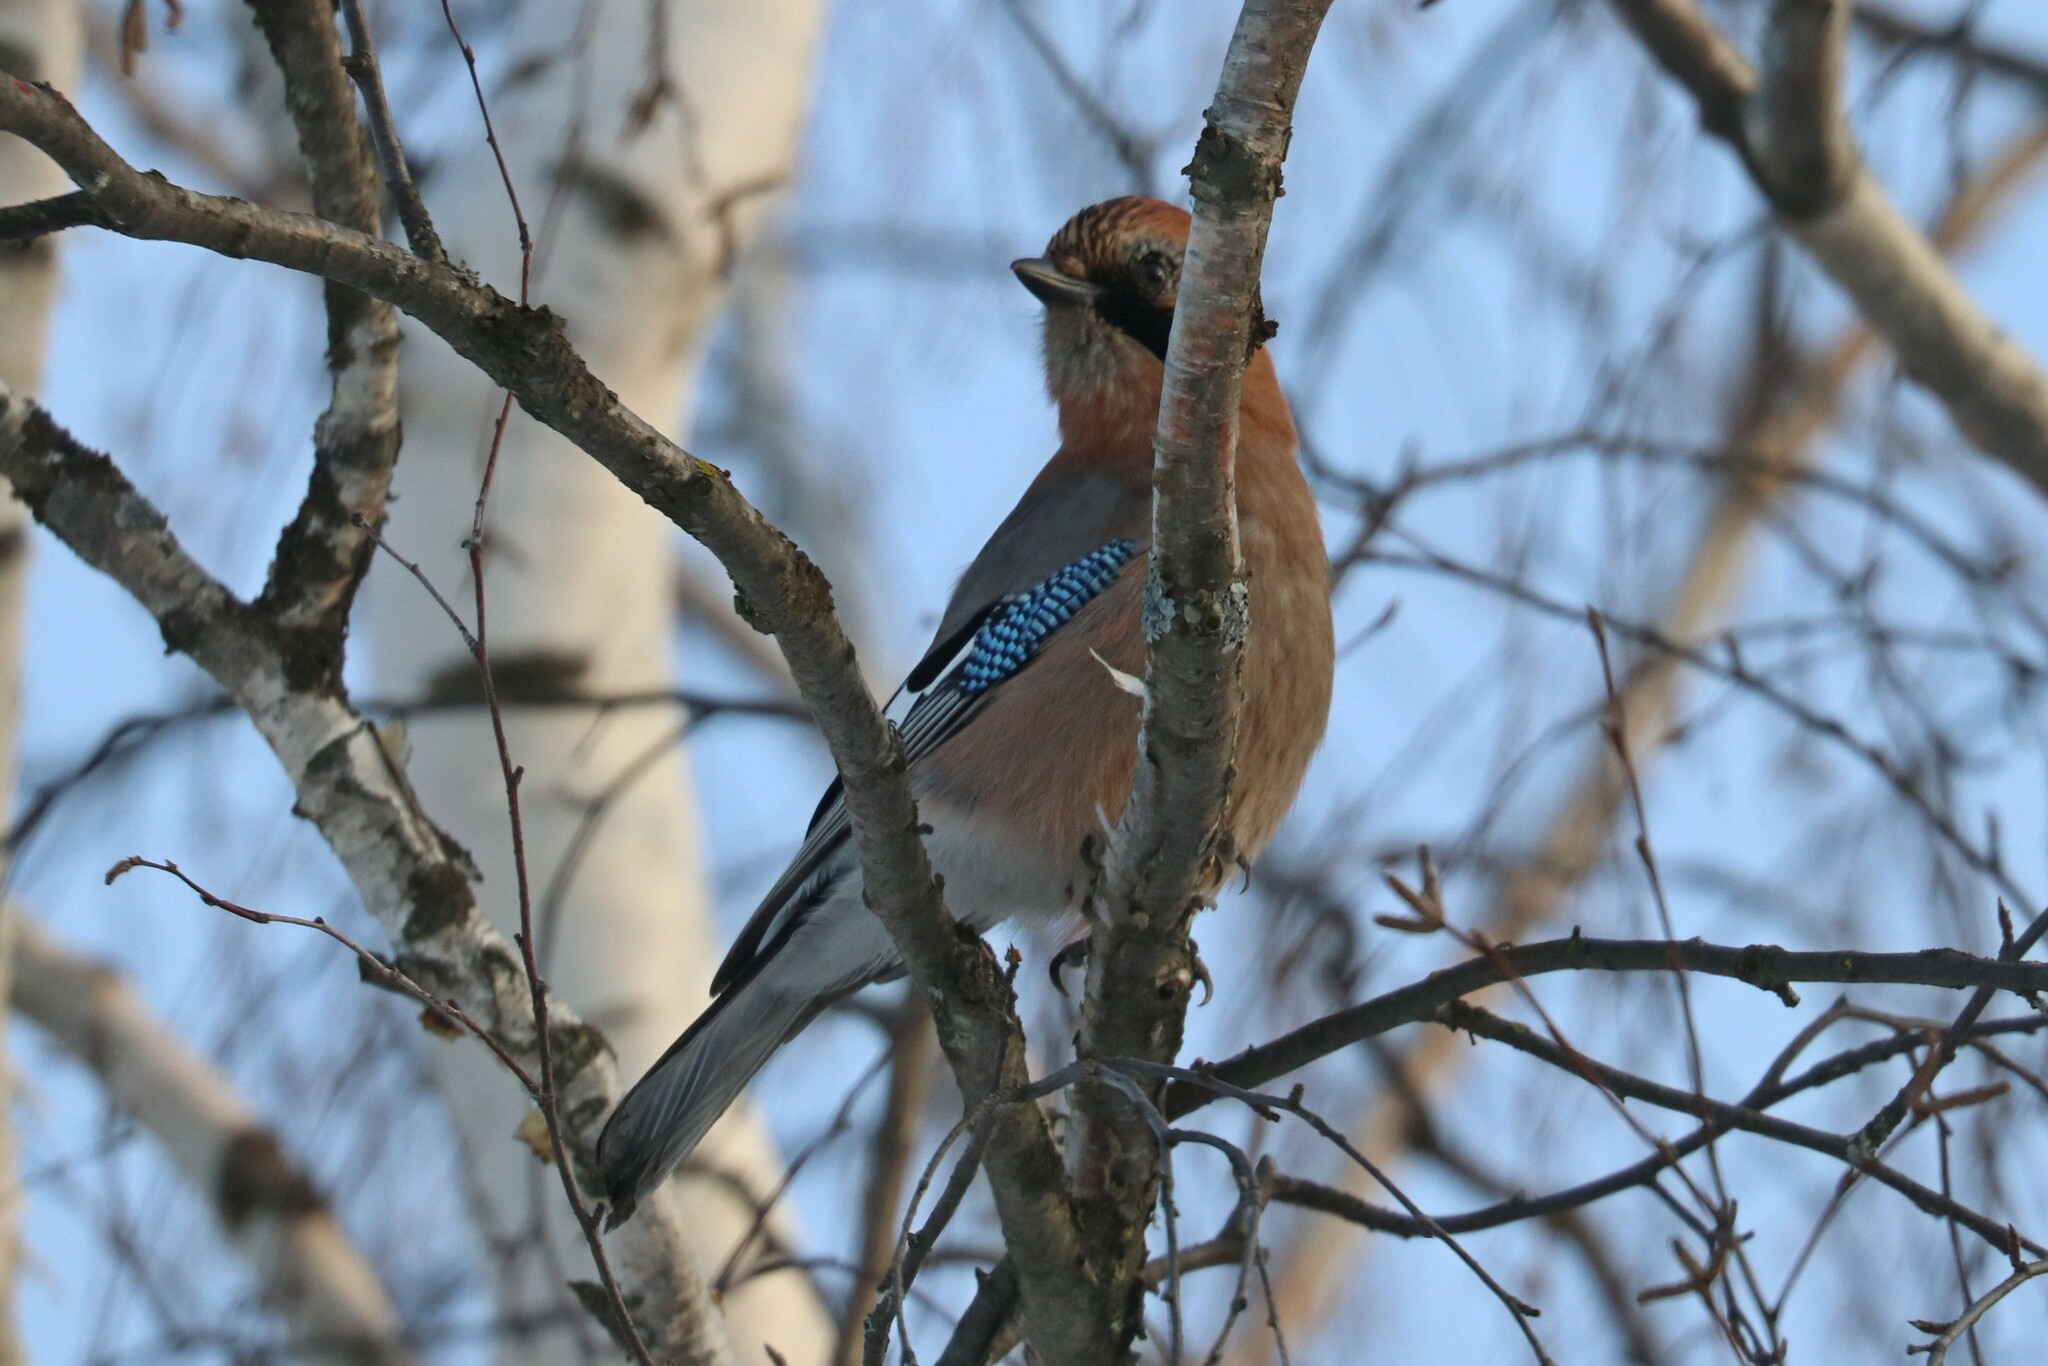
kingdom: Animalia
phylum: Chordata
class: Aves
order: Passeriformes
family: Corvidae
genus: Garrulus
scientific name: Garrulus glandarius
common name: Eurasian jay
